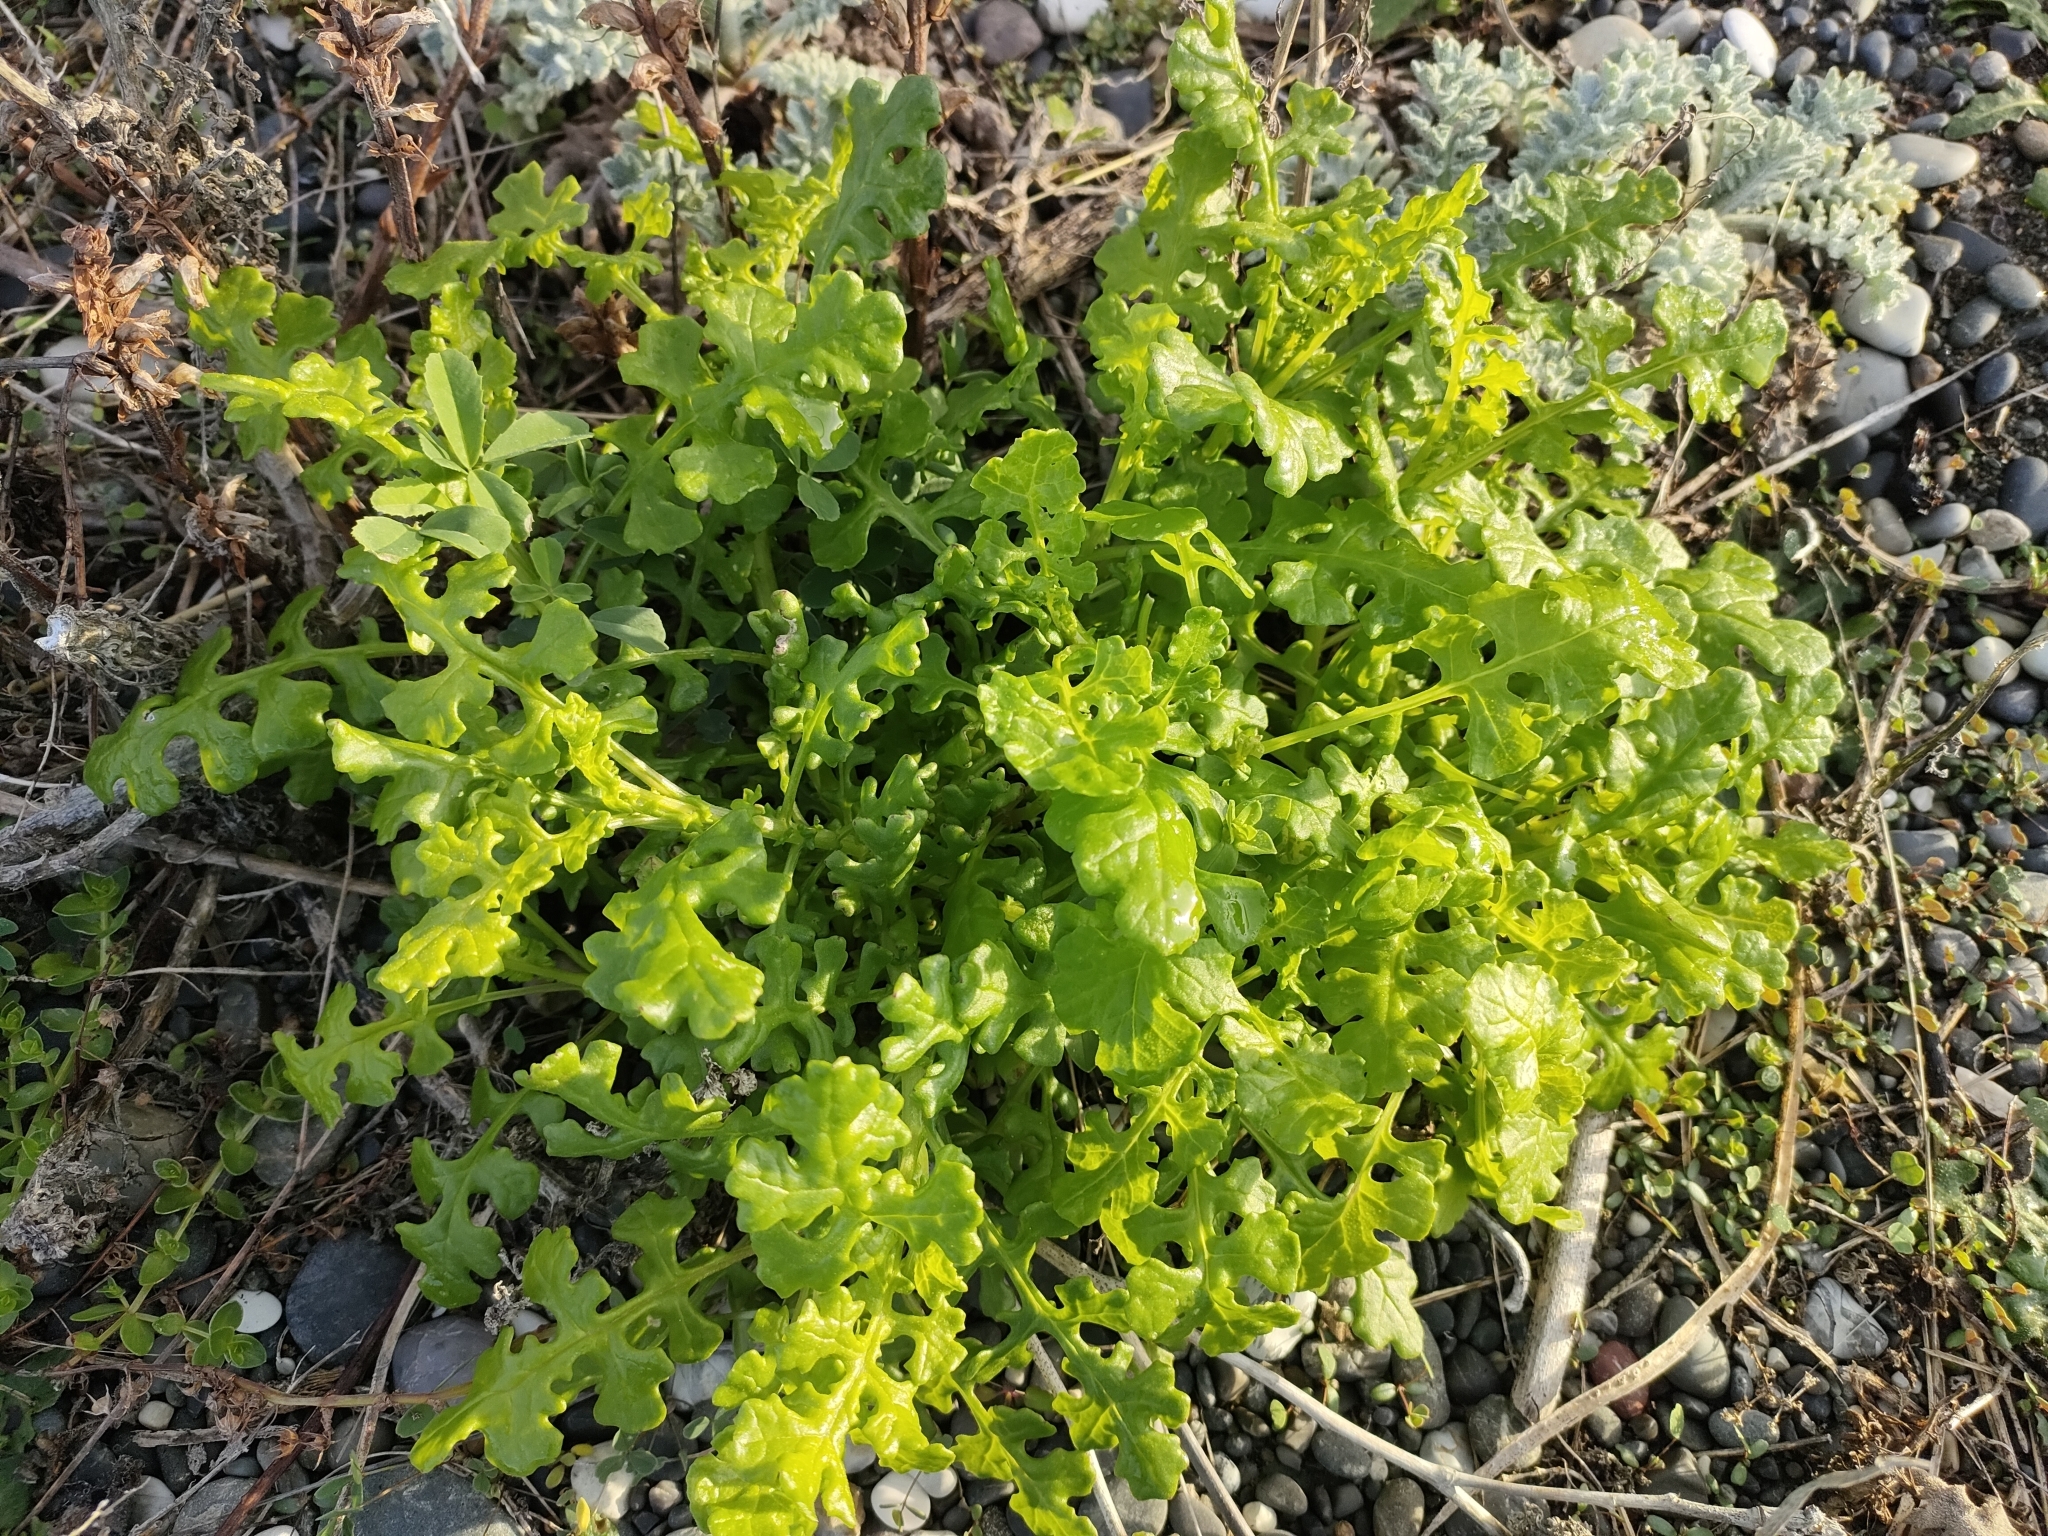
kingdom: Plantae
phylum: Tracheophyta
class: Magnoliopsida
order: Asterales
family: Asteraceae
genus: Senecio
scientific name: Senecio elegans
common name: Purple groundsel
